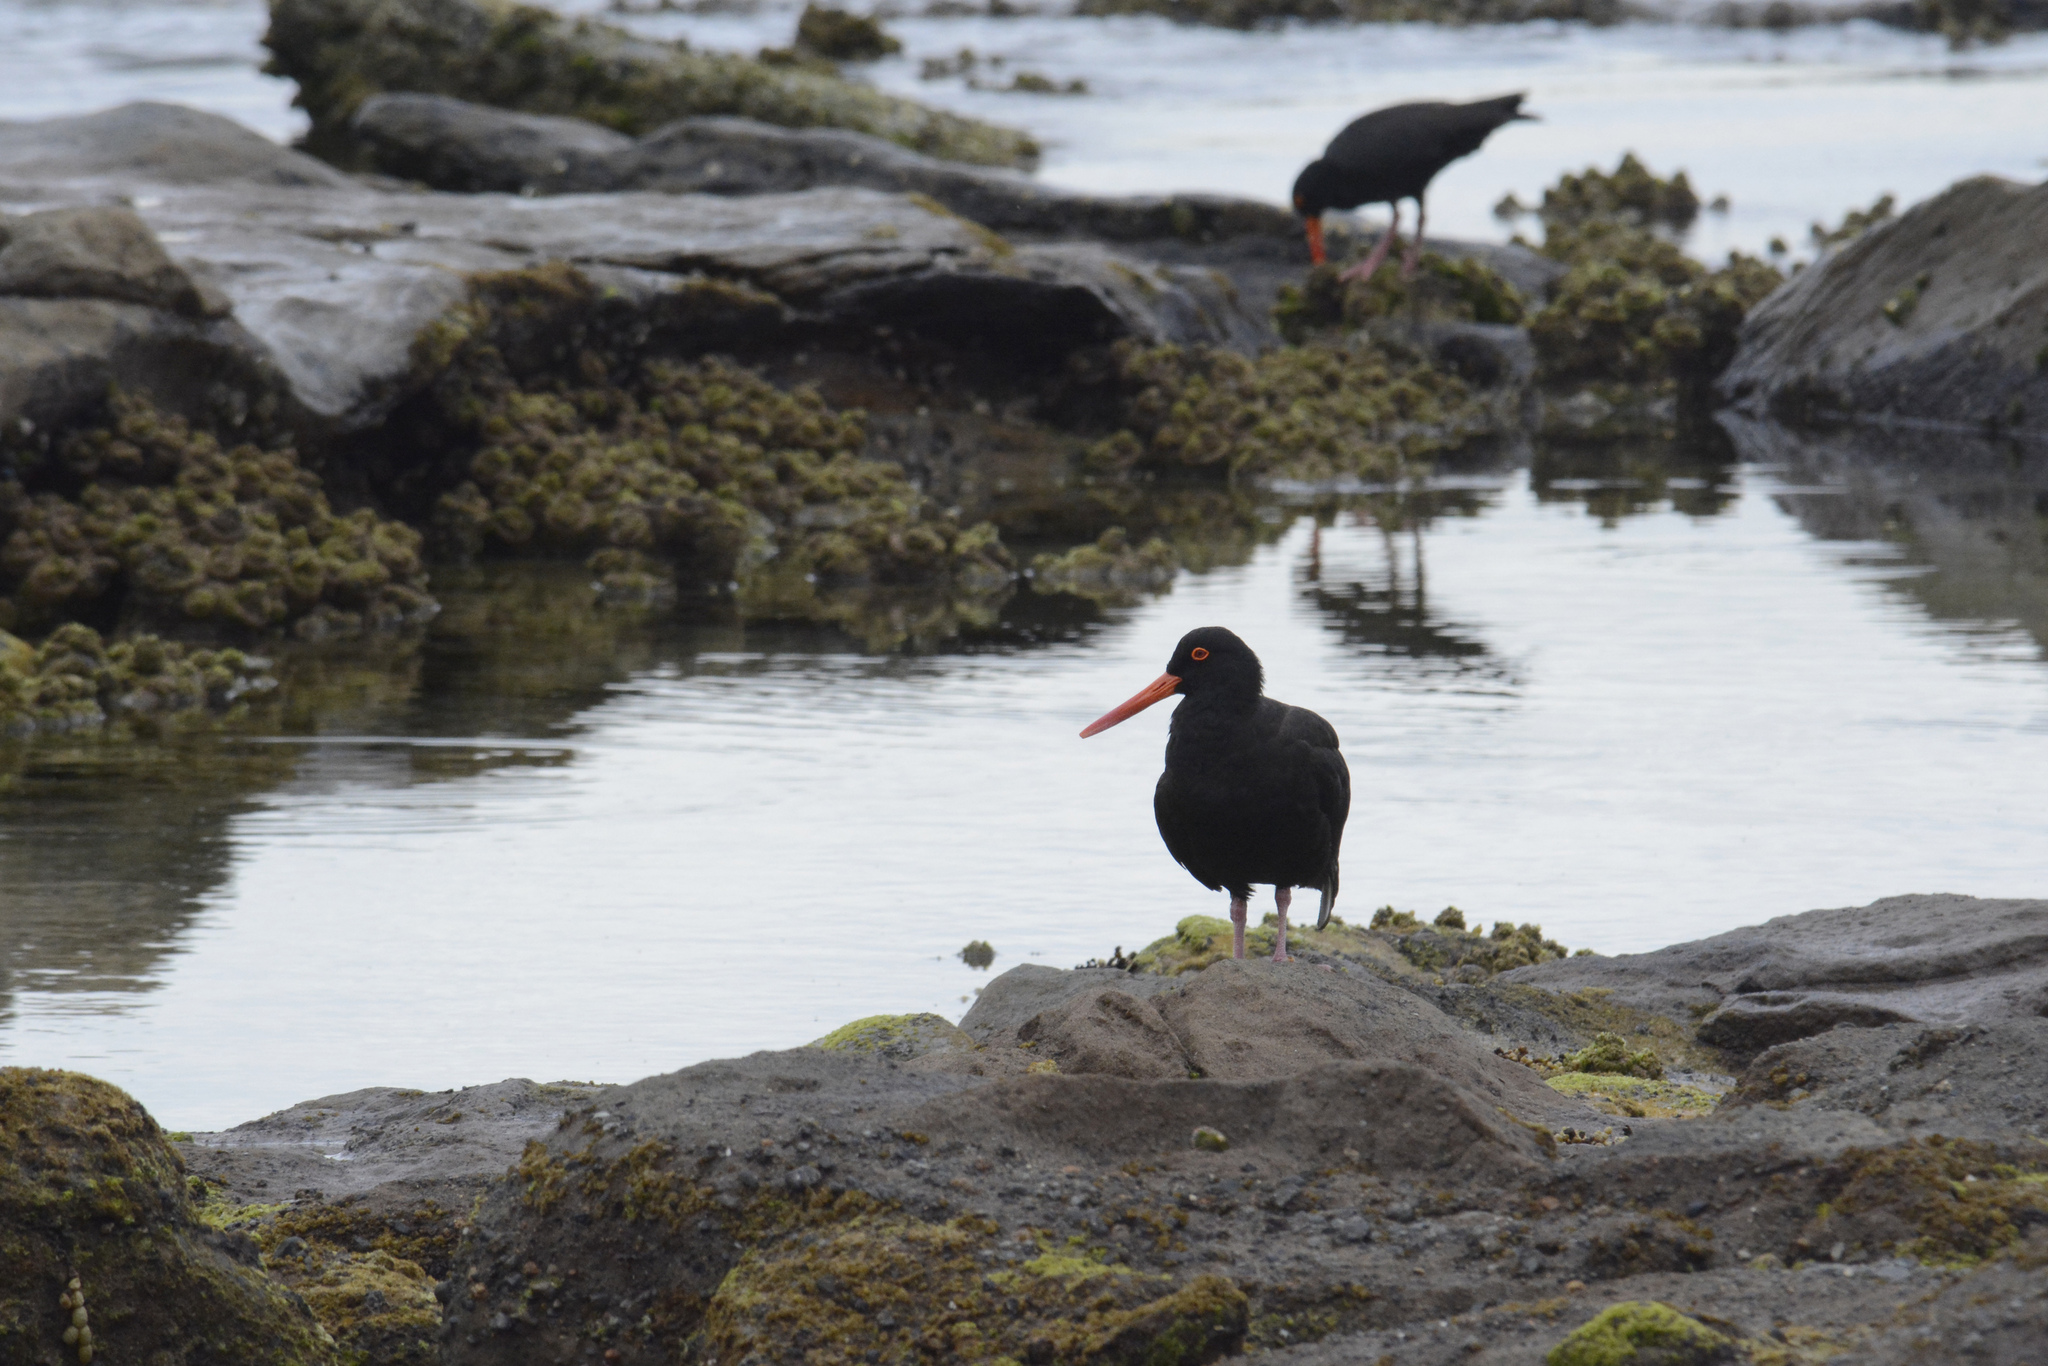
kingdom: Animalia
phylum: Chordata
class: Aves
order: Charadriiformes
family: Haematopodidae
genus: Haematopus
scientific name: Haematopus fuliginosus
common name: Sooty oystercatcher
